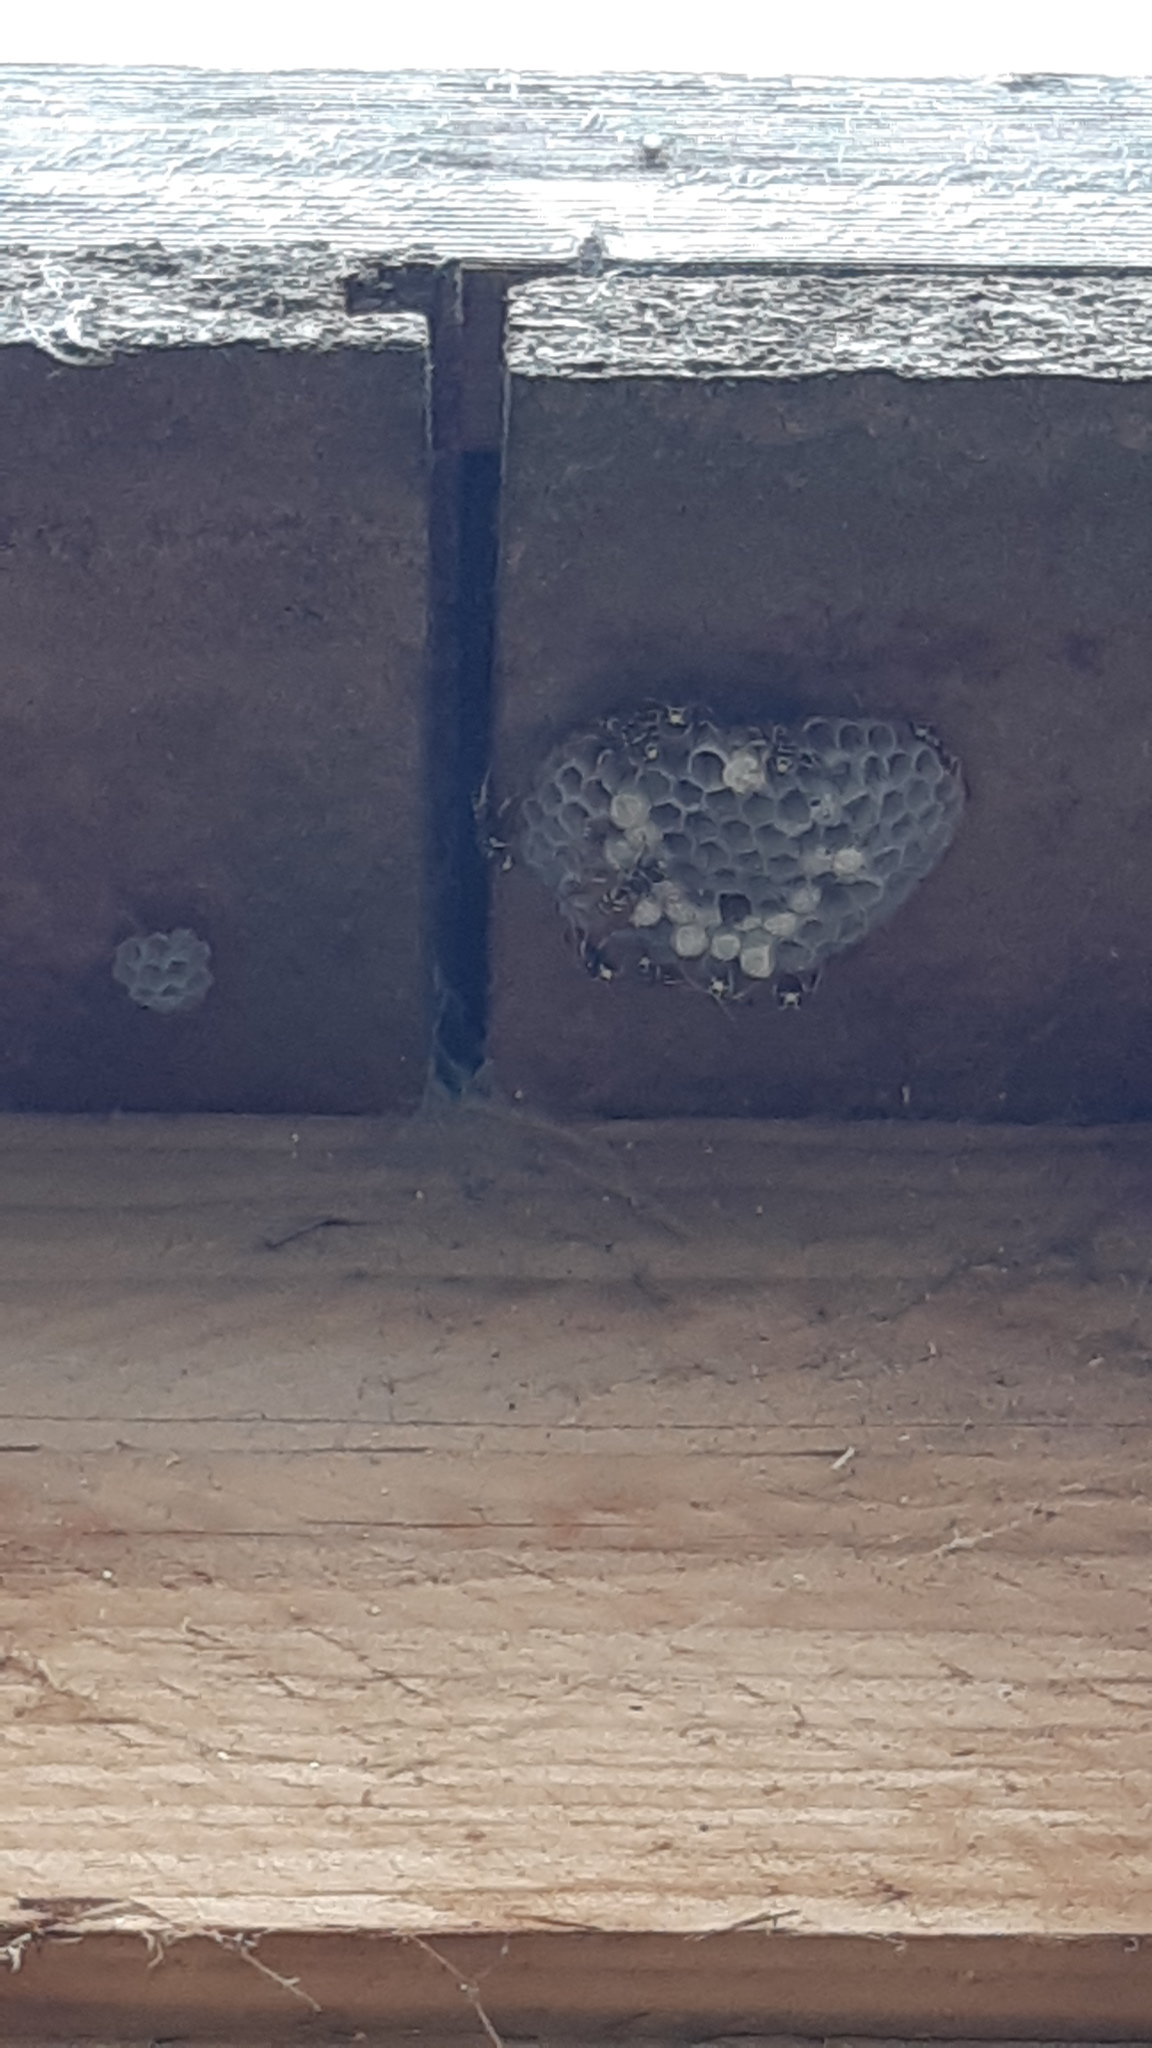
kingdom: Animalia
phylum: Arthropoda
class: Insecta
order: Hymenoptera
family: Eumenidae
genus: Polistes
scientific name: Polistes
